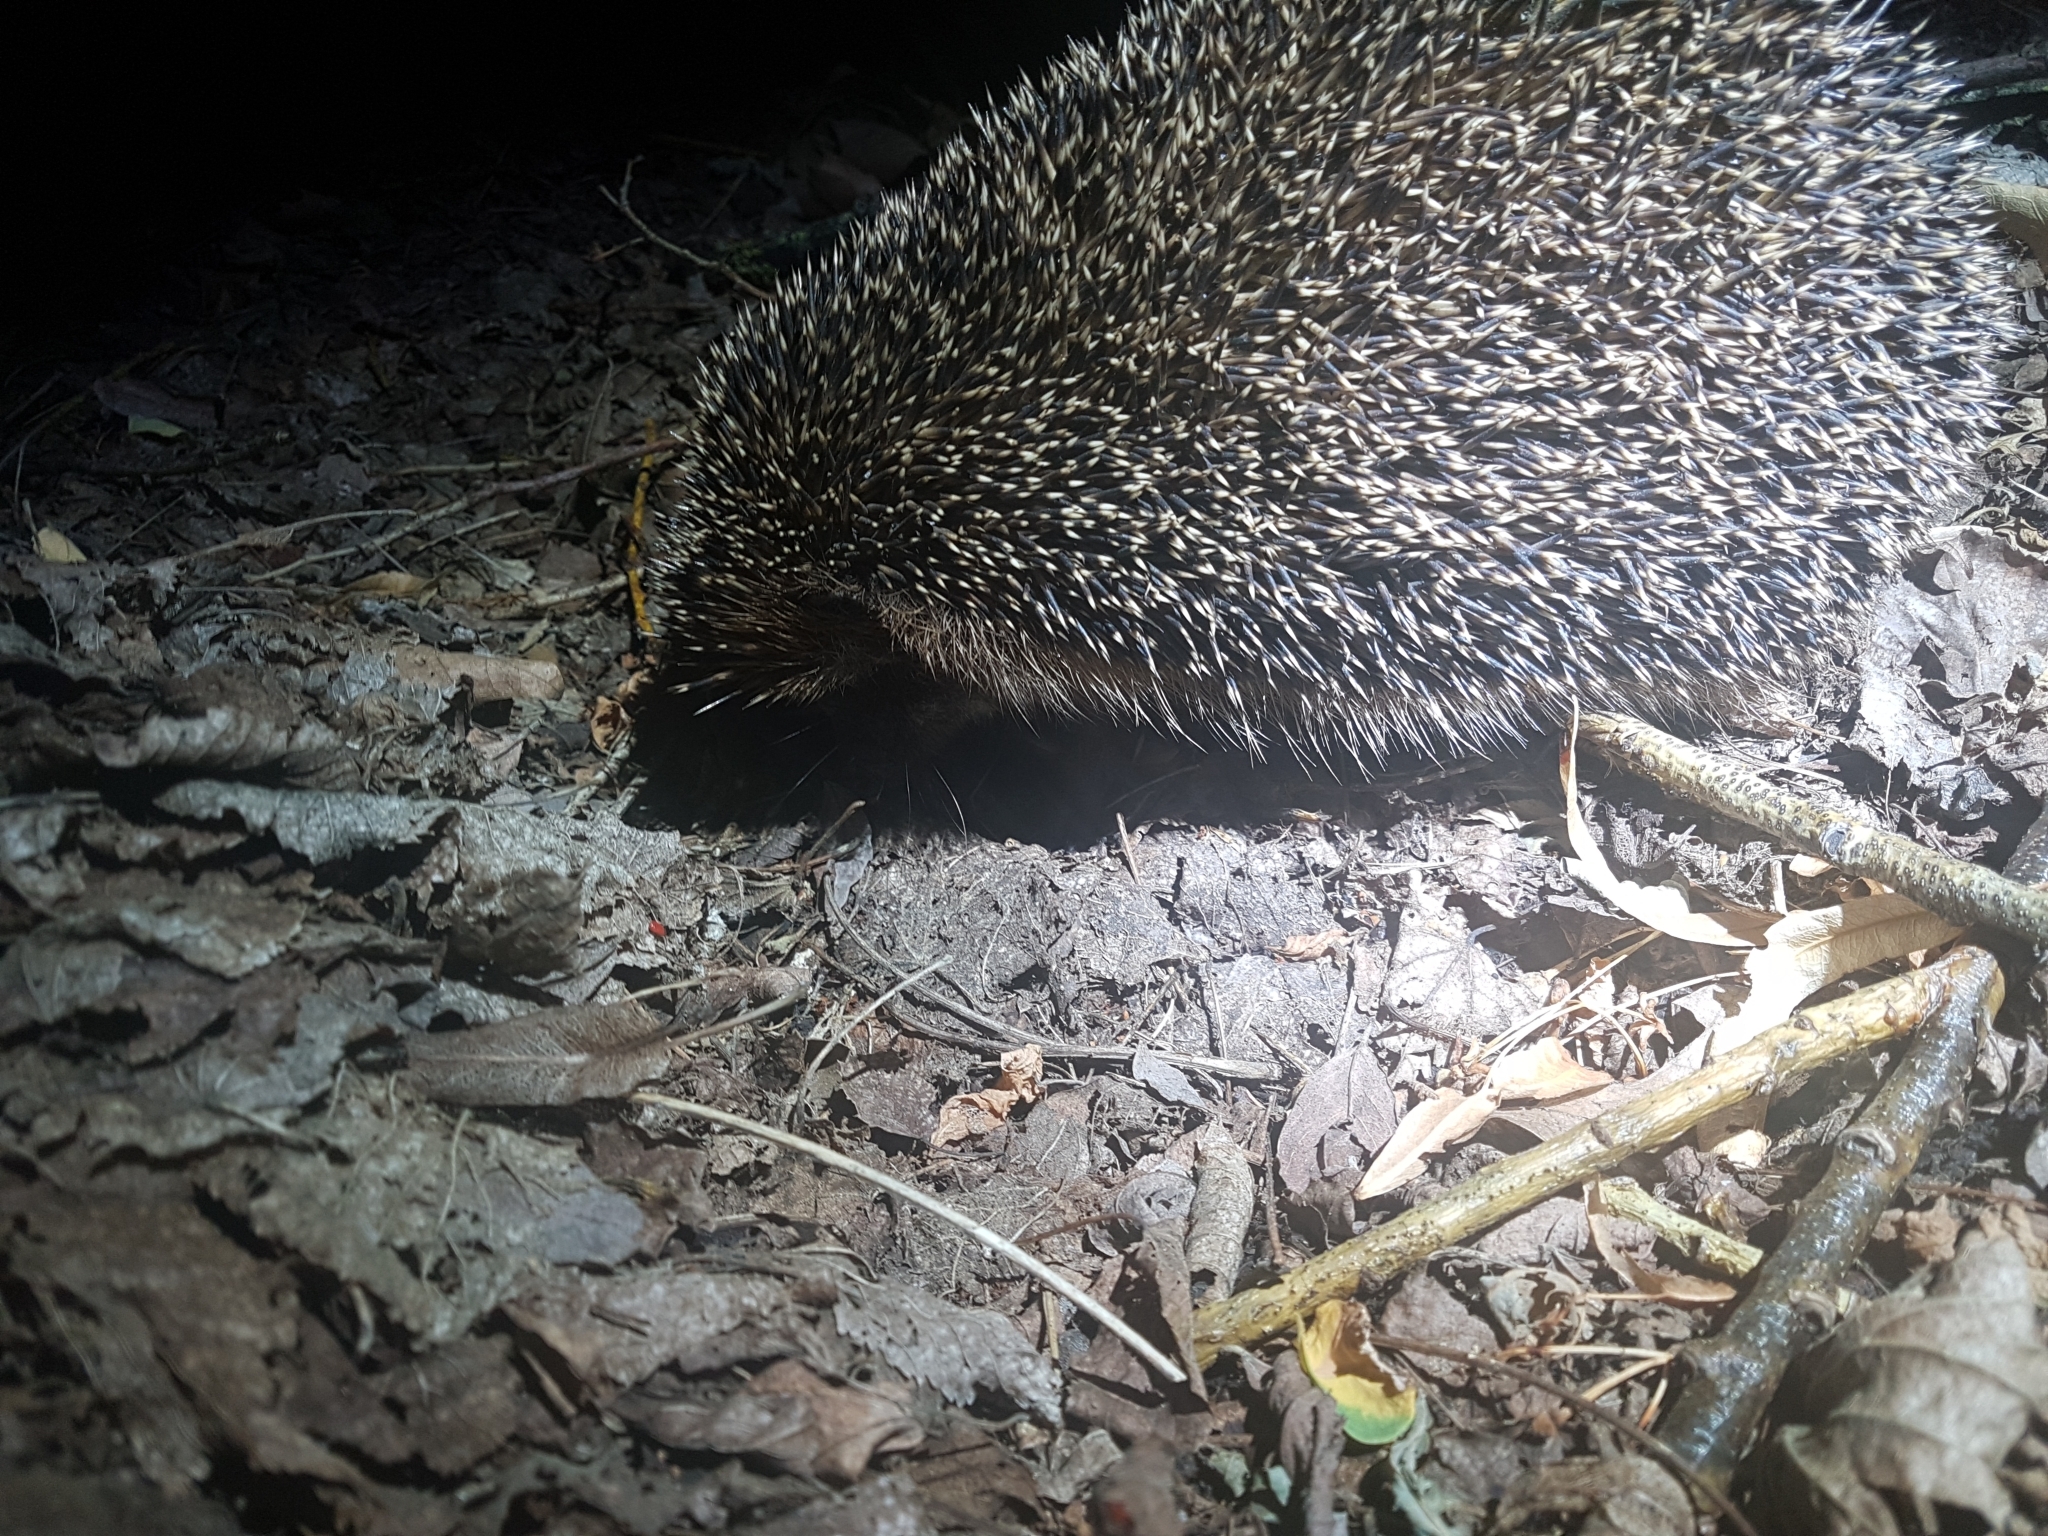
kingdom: Animalia
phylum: Chordata
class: Mammalia
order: Erinaceomorpha
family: Erinaceidae
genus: Erinaceus
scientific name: Erinaceus europaeus
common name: West european hedgehog
